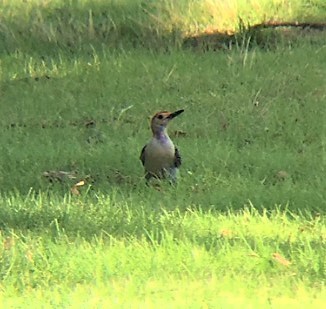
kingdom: Animalia
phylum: Chordata
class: Aves
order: Piciformes
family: Picidae
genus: Melanerpes
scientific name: Melanerpes carolinus
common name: Red-bellied woodpecker
